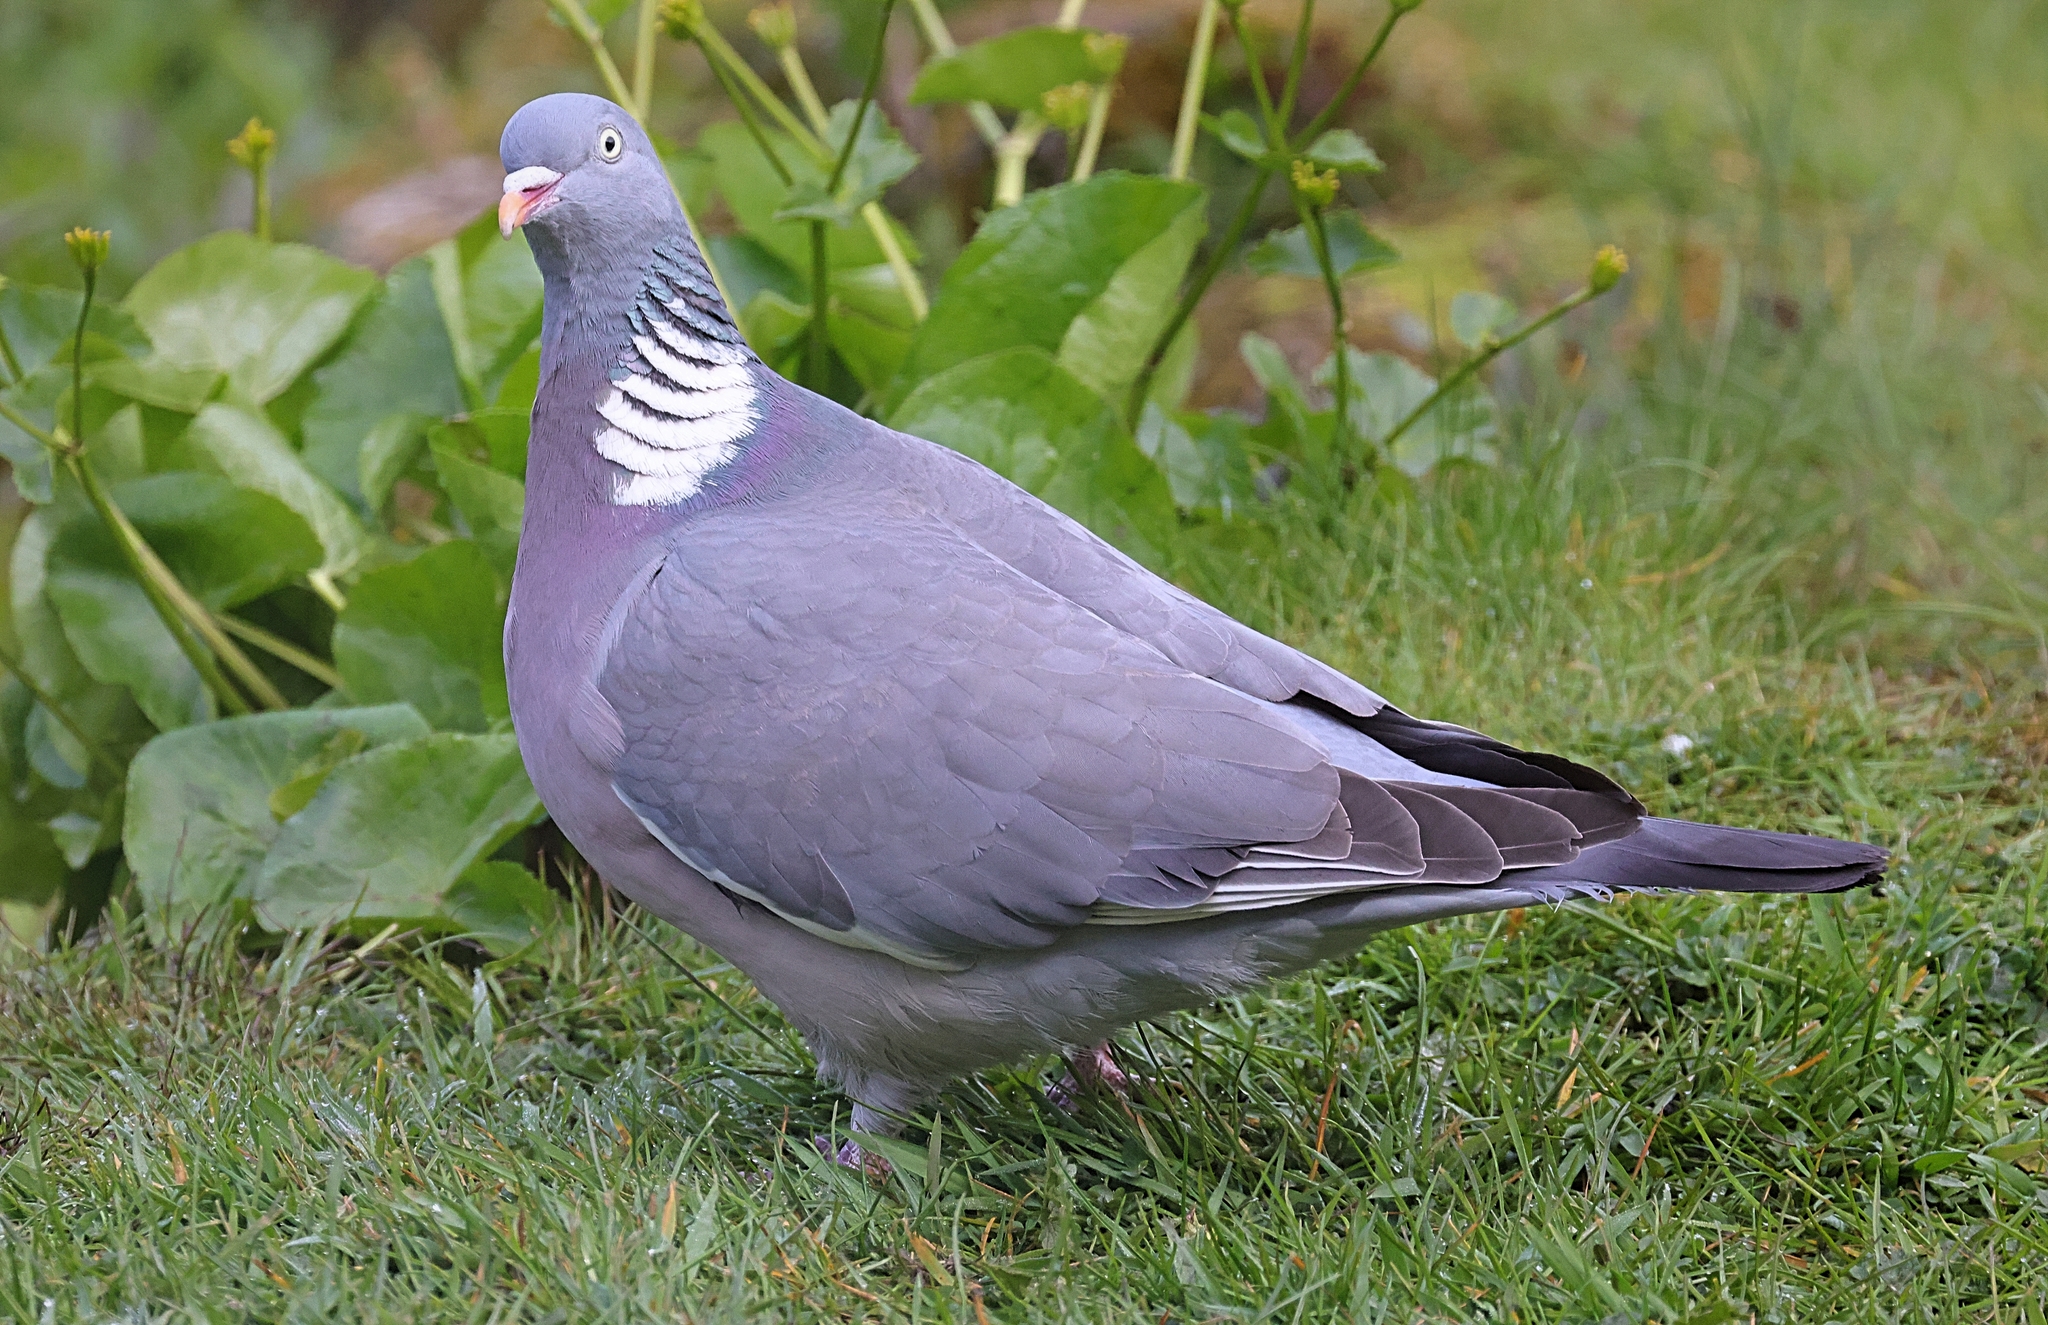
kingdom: Animalia
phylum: Chordata
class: Aves
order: Columbiformes
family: Columbidae
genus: Columba
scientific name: Columba palumbus
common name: Common wood pigeon
